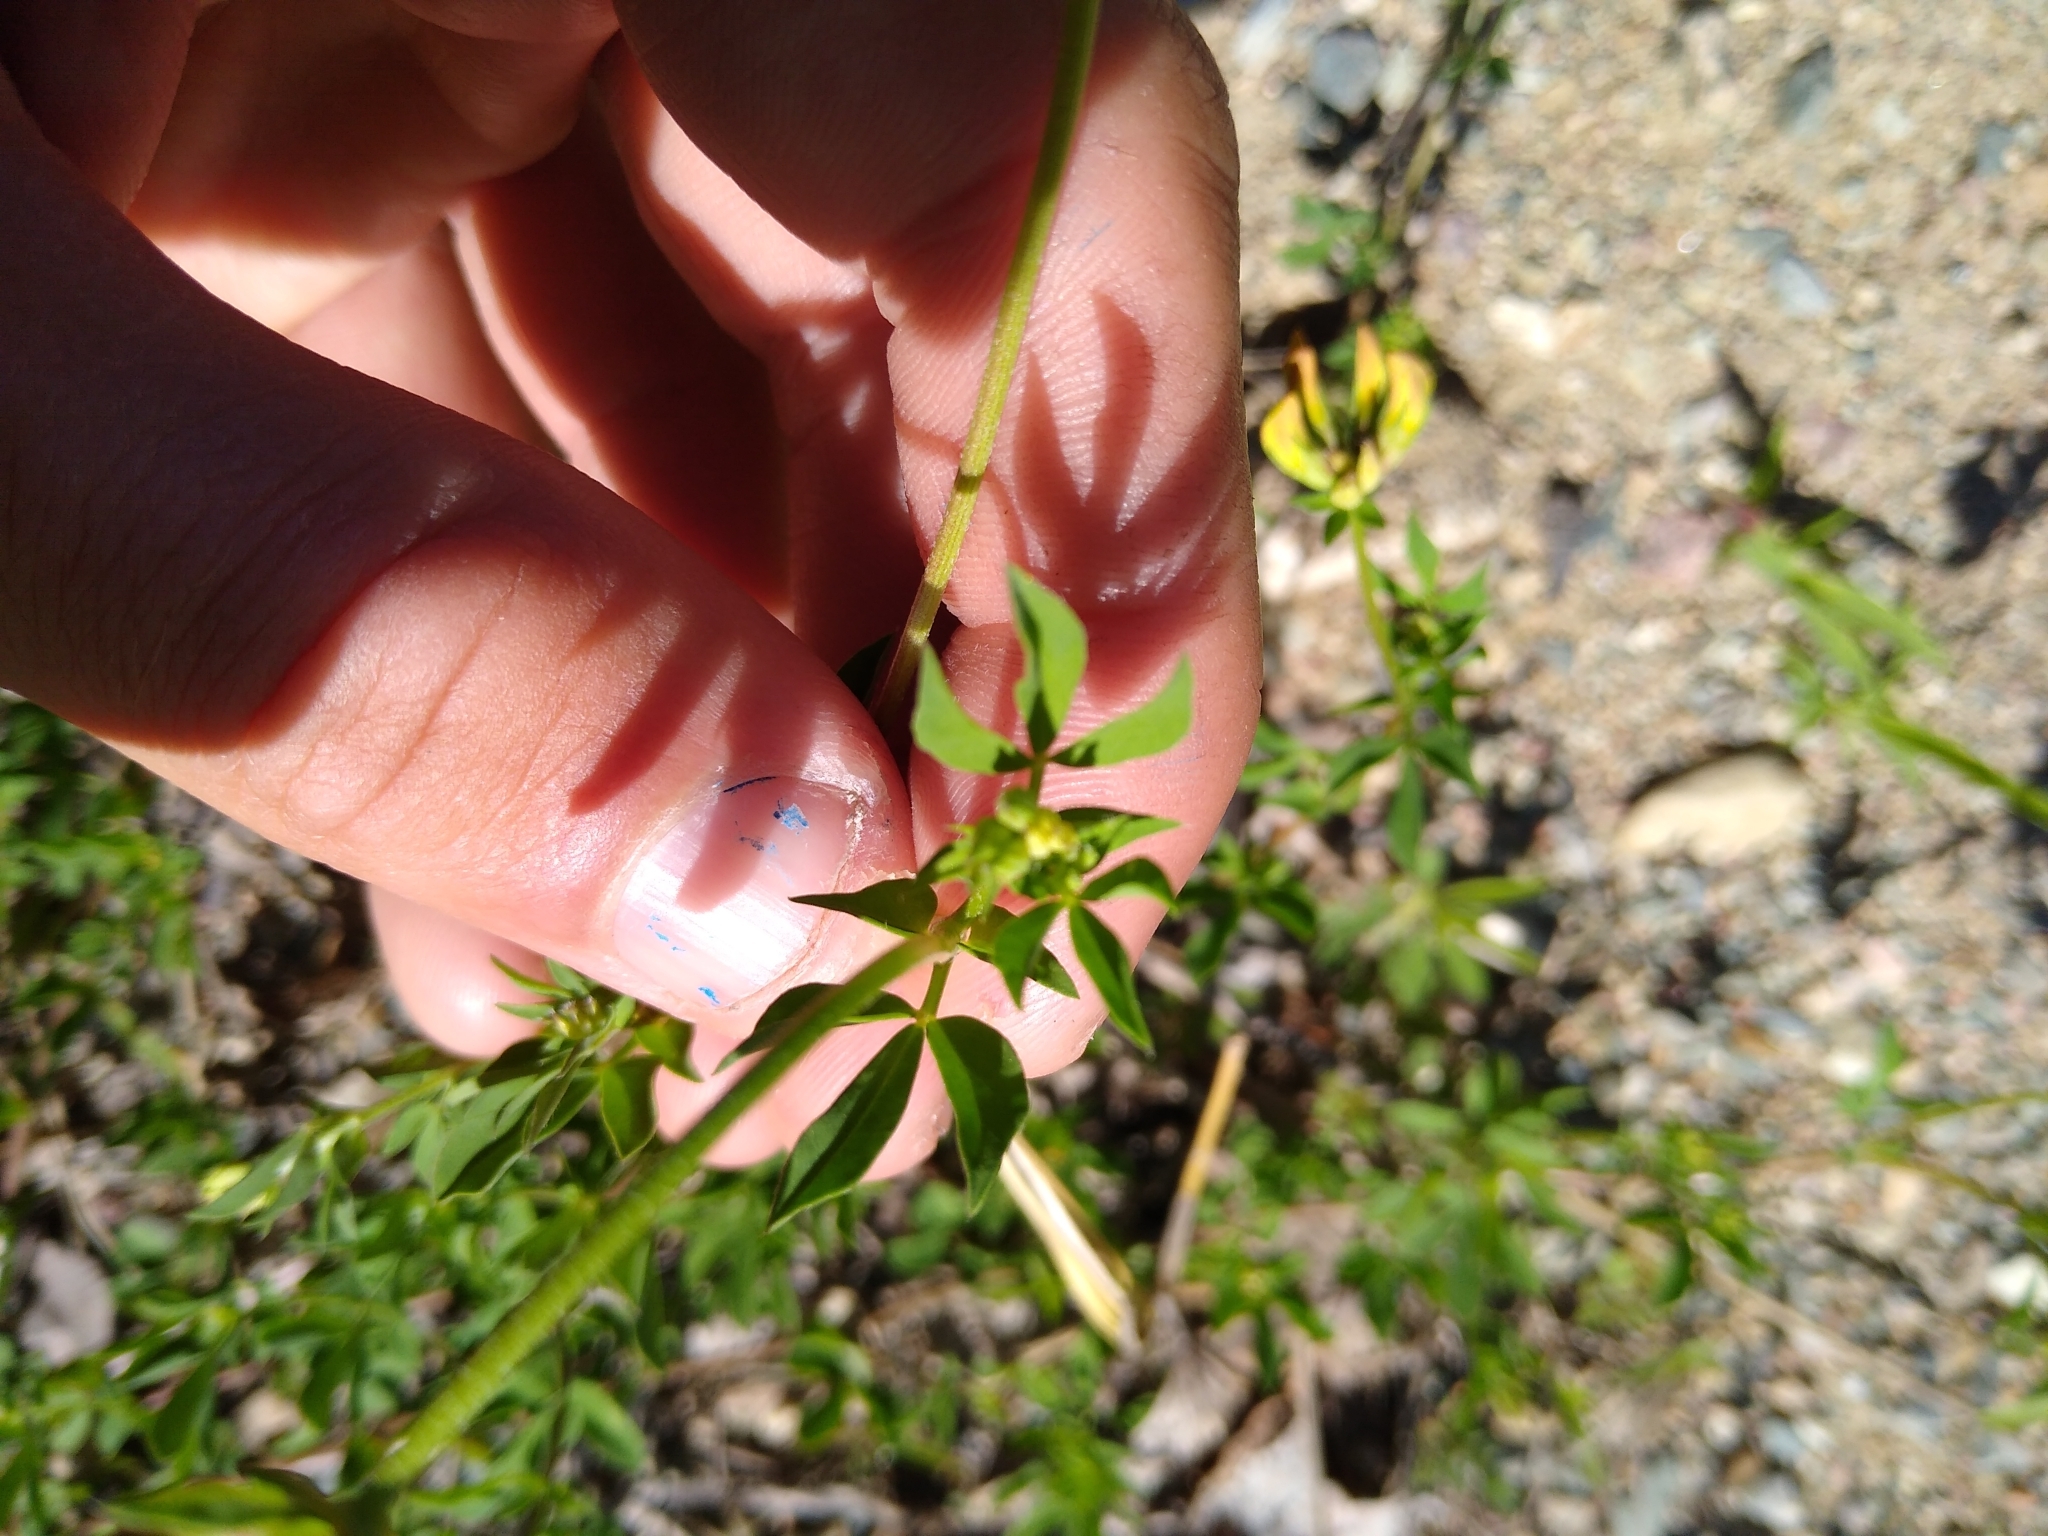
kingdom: Plantae
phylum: Tracheophyta
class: Magnoliopsida
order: Fabales
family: Fabaceae
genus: Lotus
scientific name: Lotus corniculatus
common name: Common bird's-foot-trefoil
